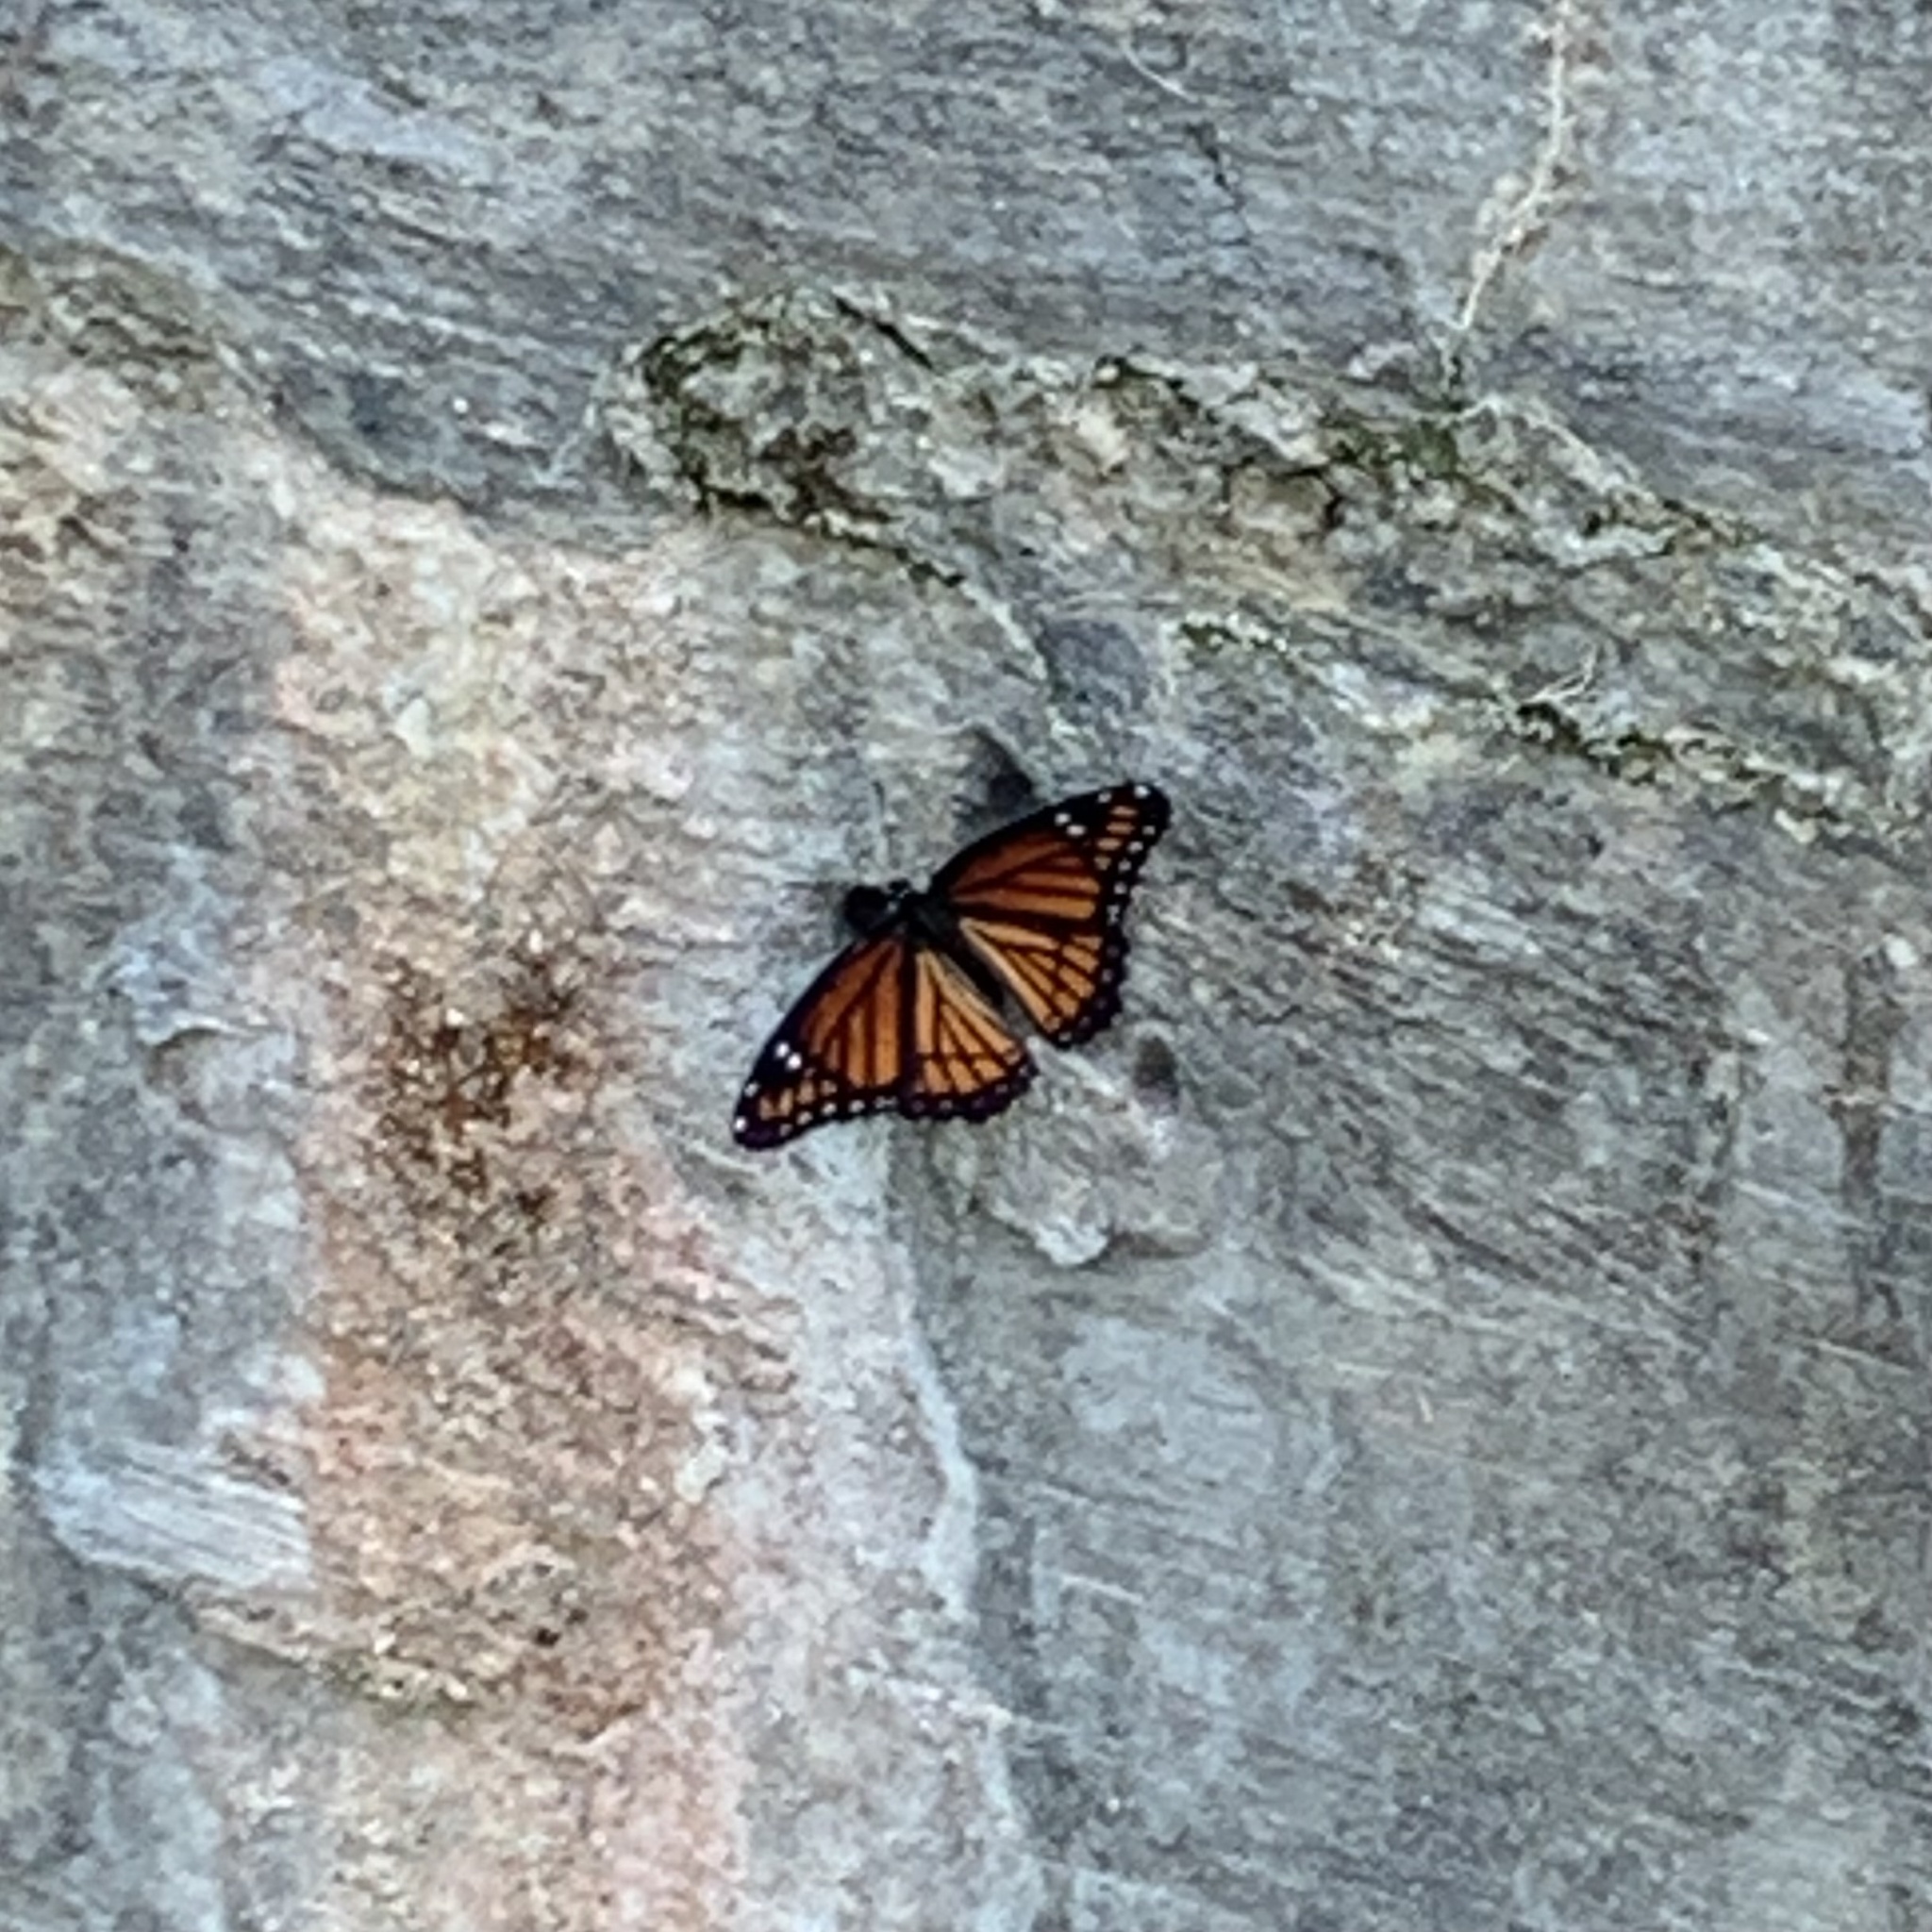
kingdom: Animalia
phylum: Arthropoda
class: Insecta
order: Lepidoptera
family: Nymphalidae
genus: Limenitis
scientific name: Limenitis archippus
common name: Viceroy
